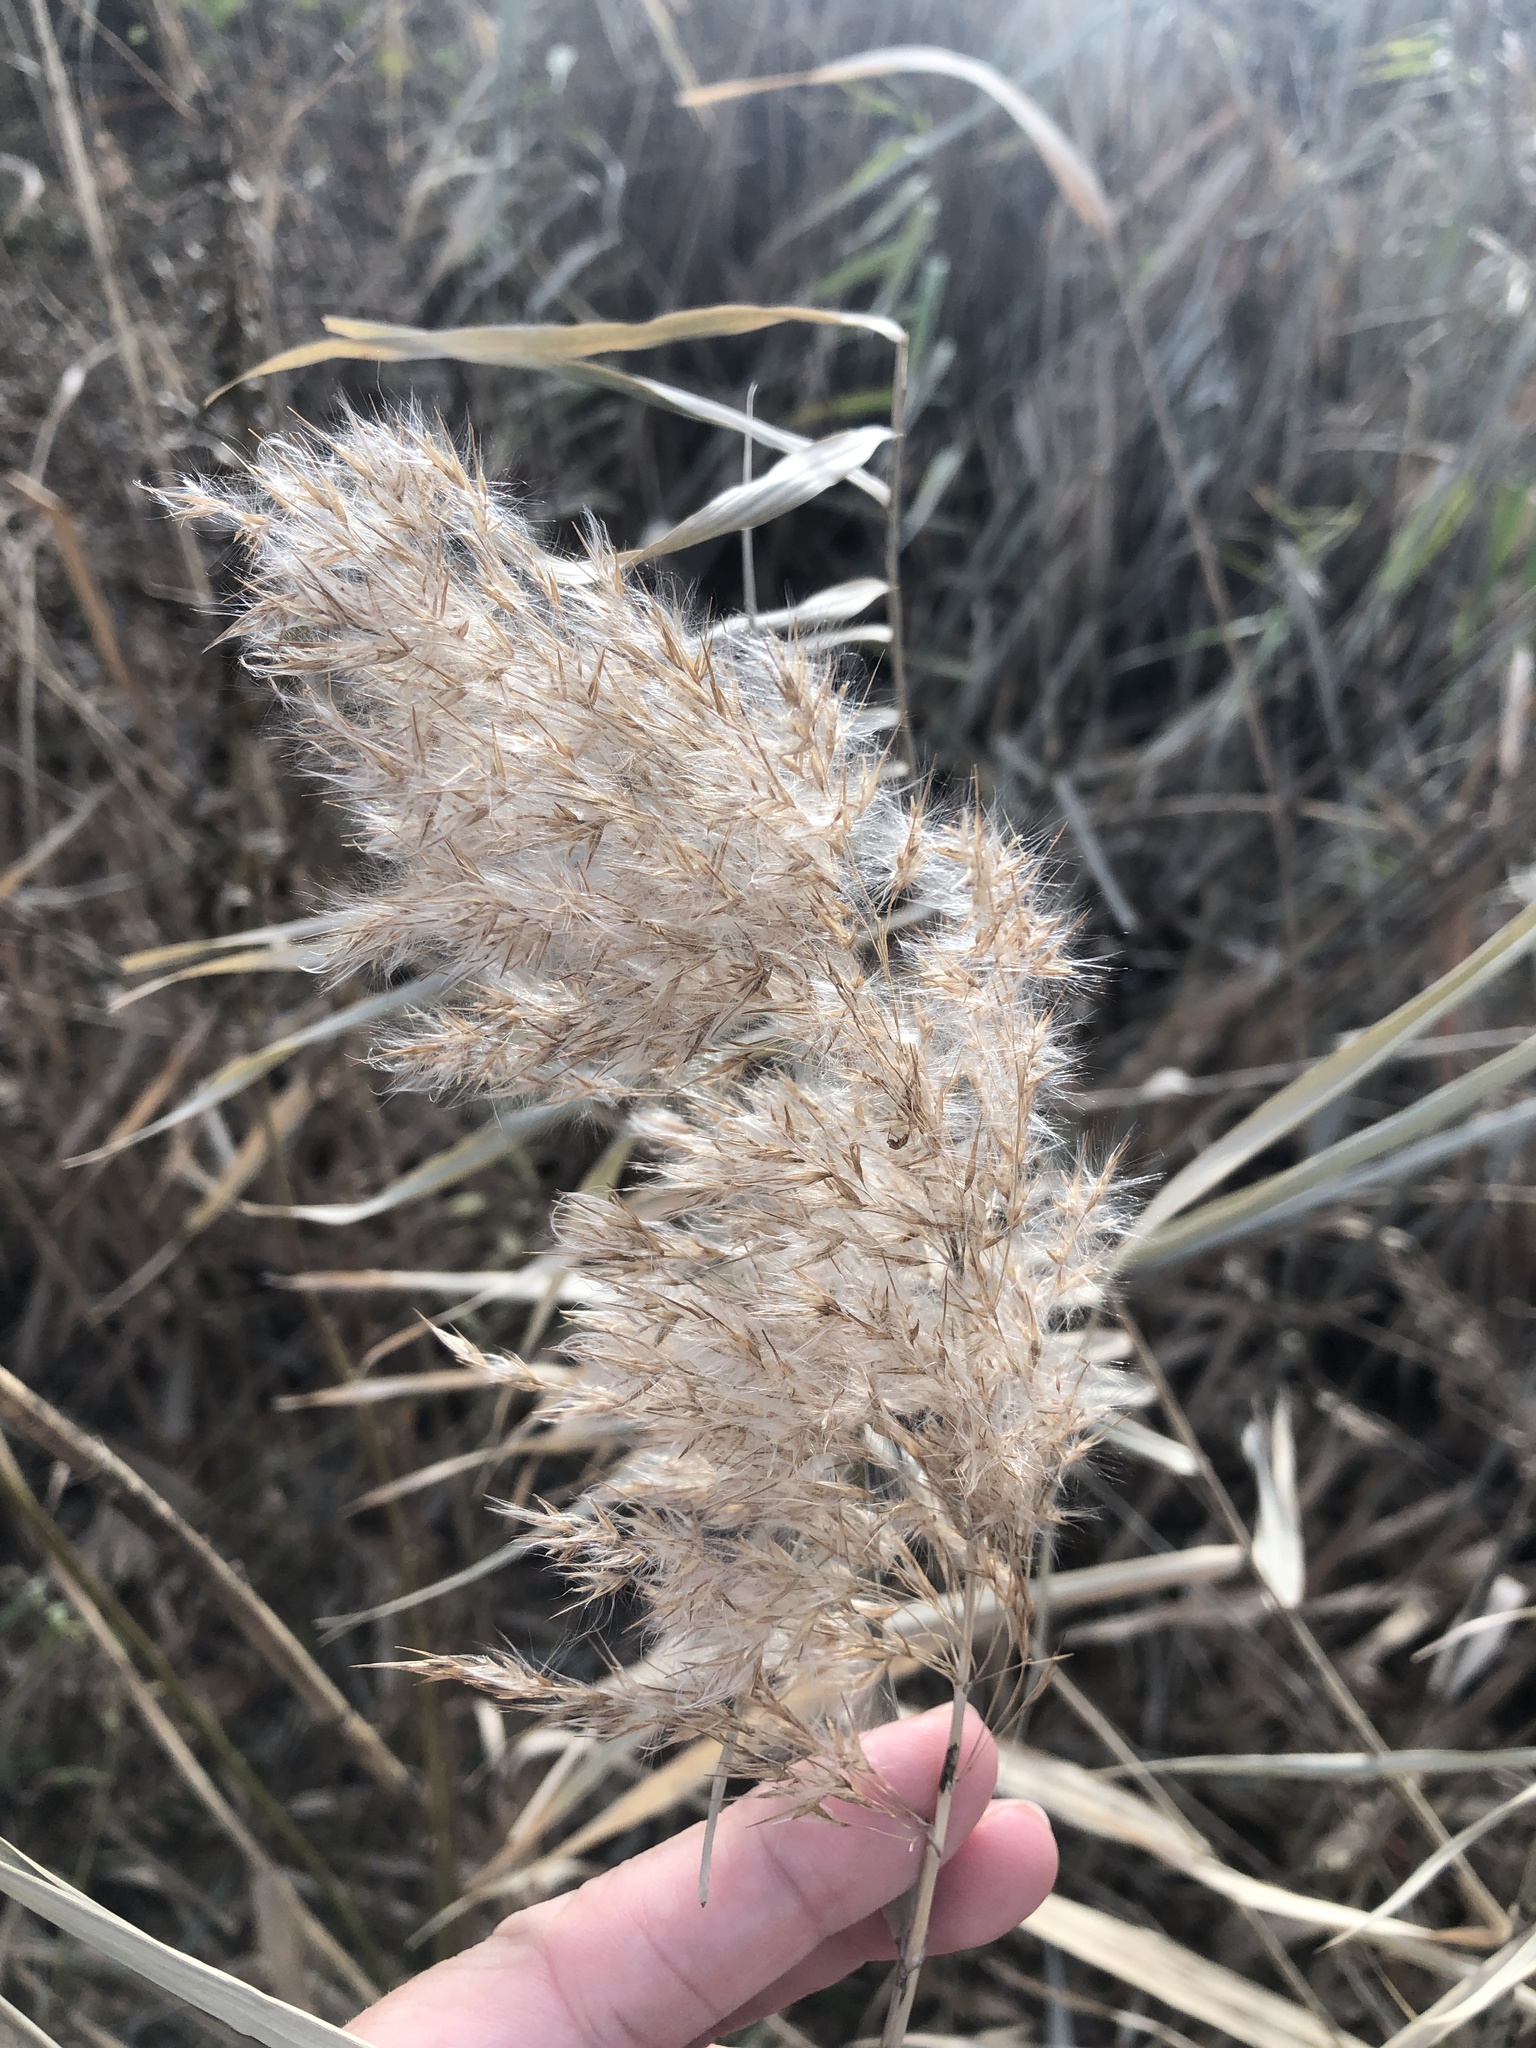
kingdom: Plantae
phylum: Tracheophyta
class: Liliopsida
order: Poales
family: Poaceae
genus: Phragmites
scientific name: Phragmites australis
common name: Common reed
